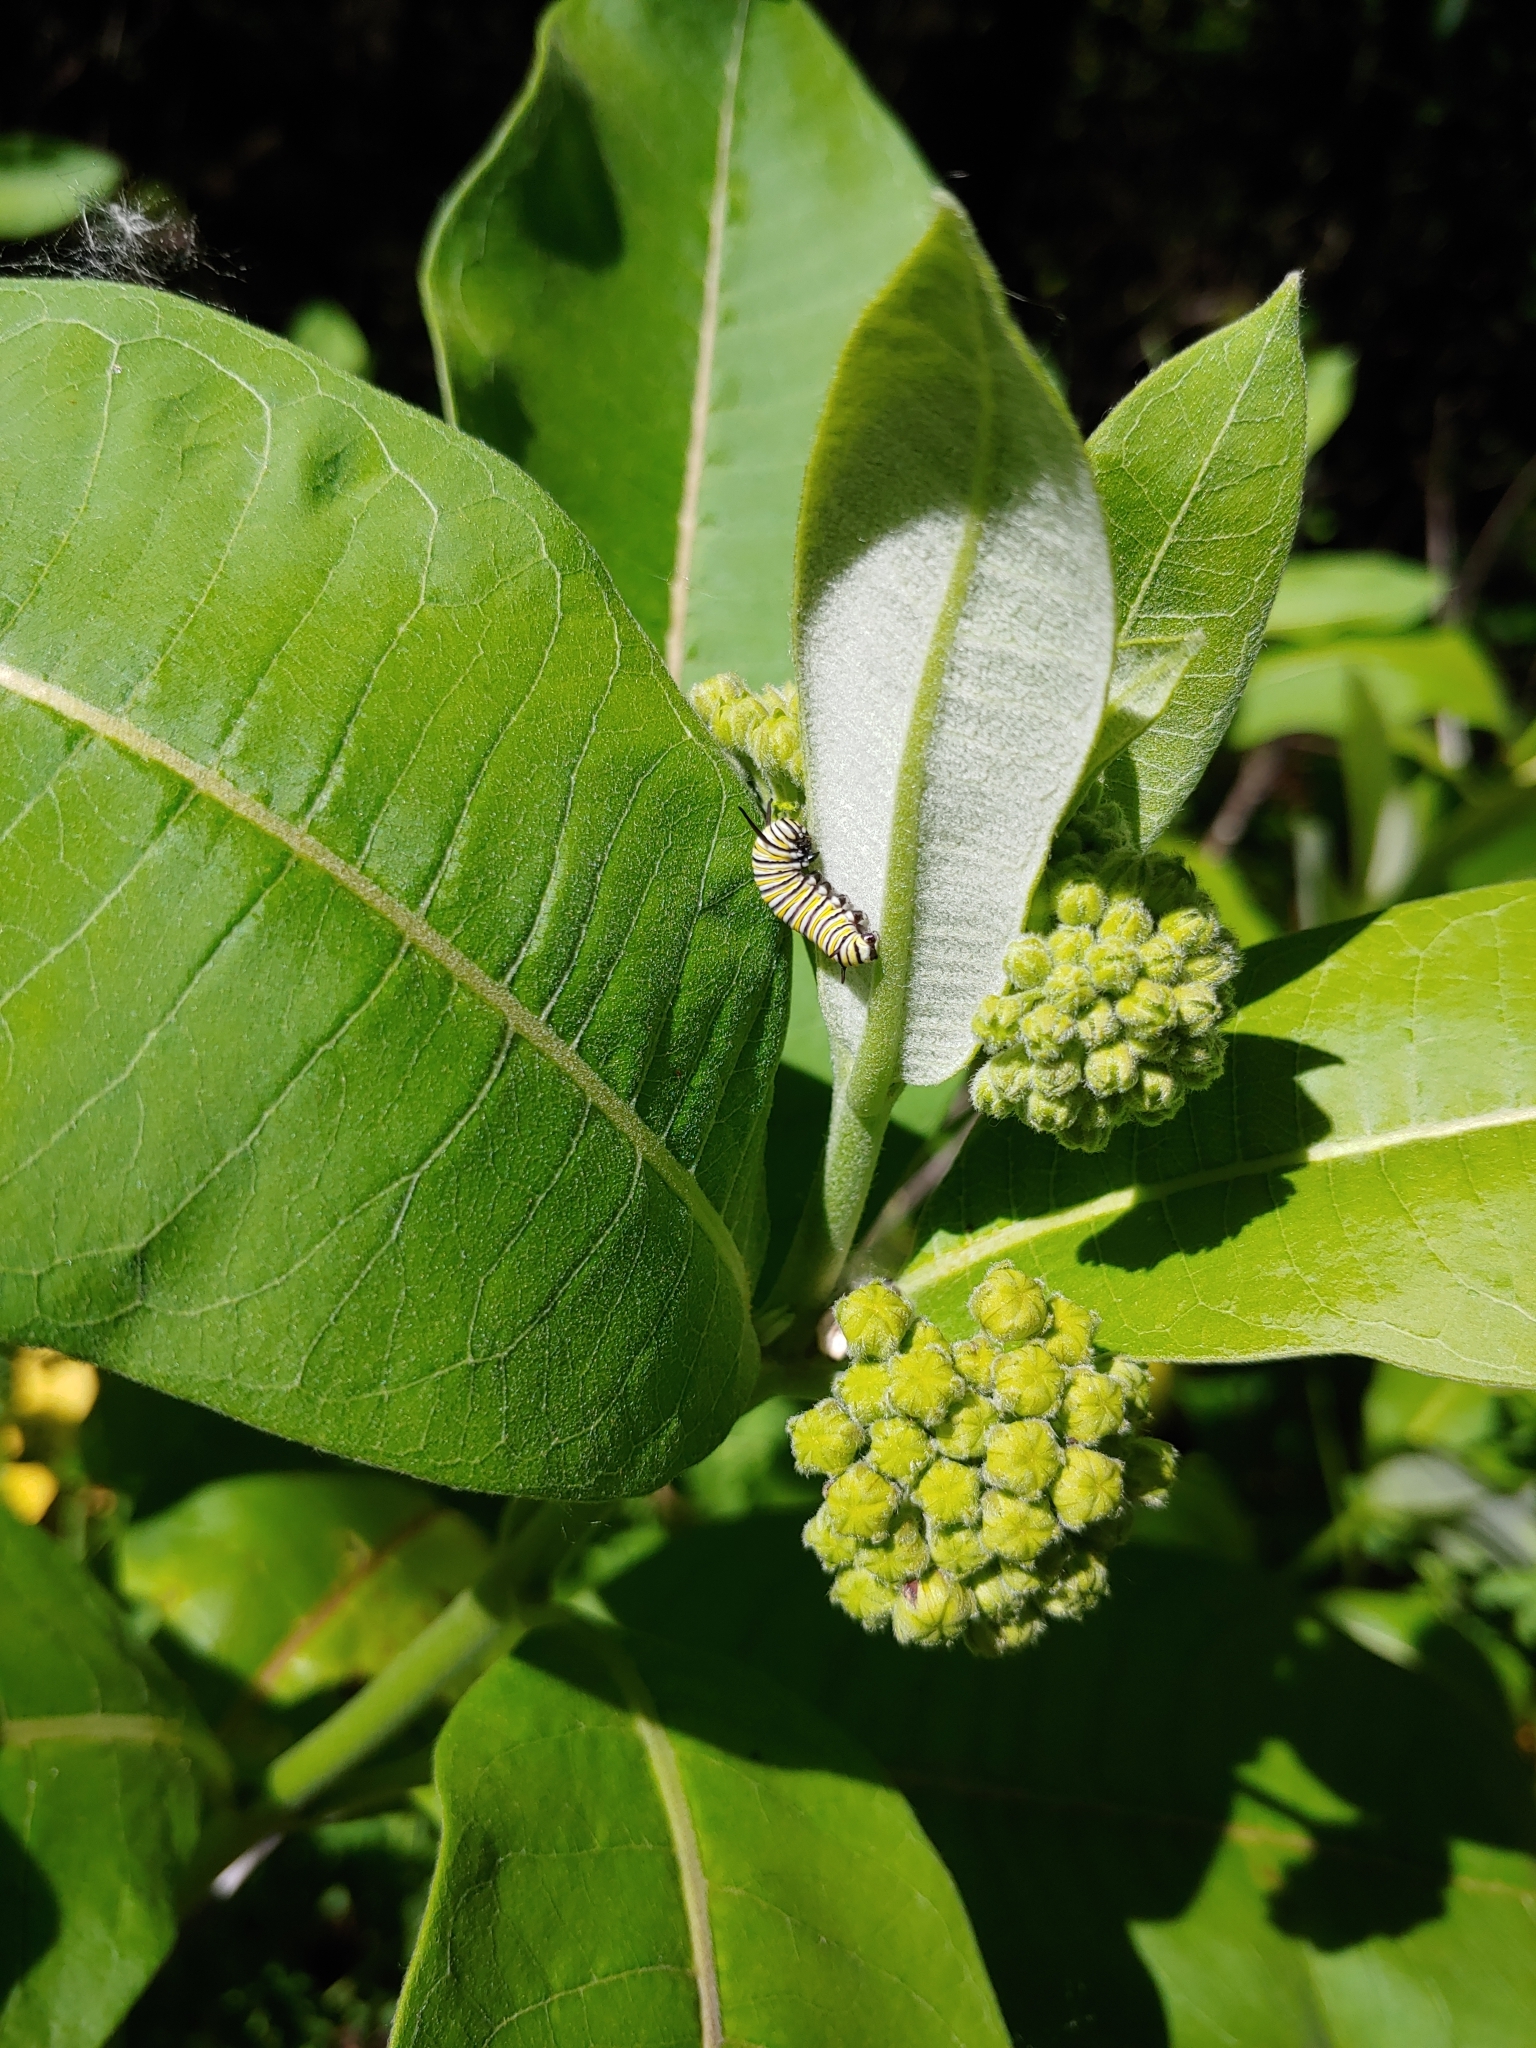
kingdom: Animalia
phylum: Arthropoda
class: Insecta
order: Lepidoptera
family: Nymphalidae
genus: Danaus
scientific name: Danaus plexippus
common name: Monarch
